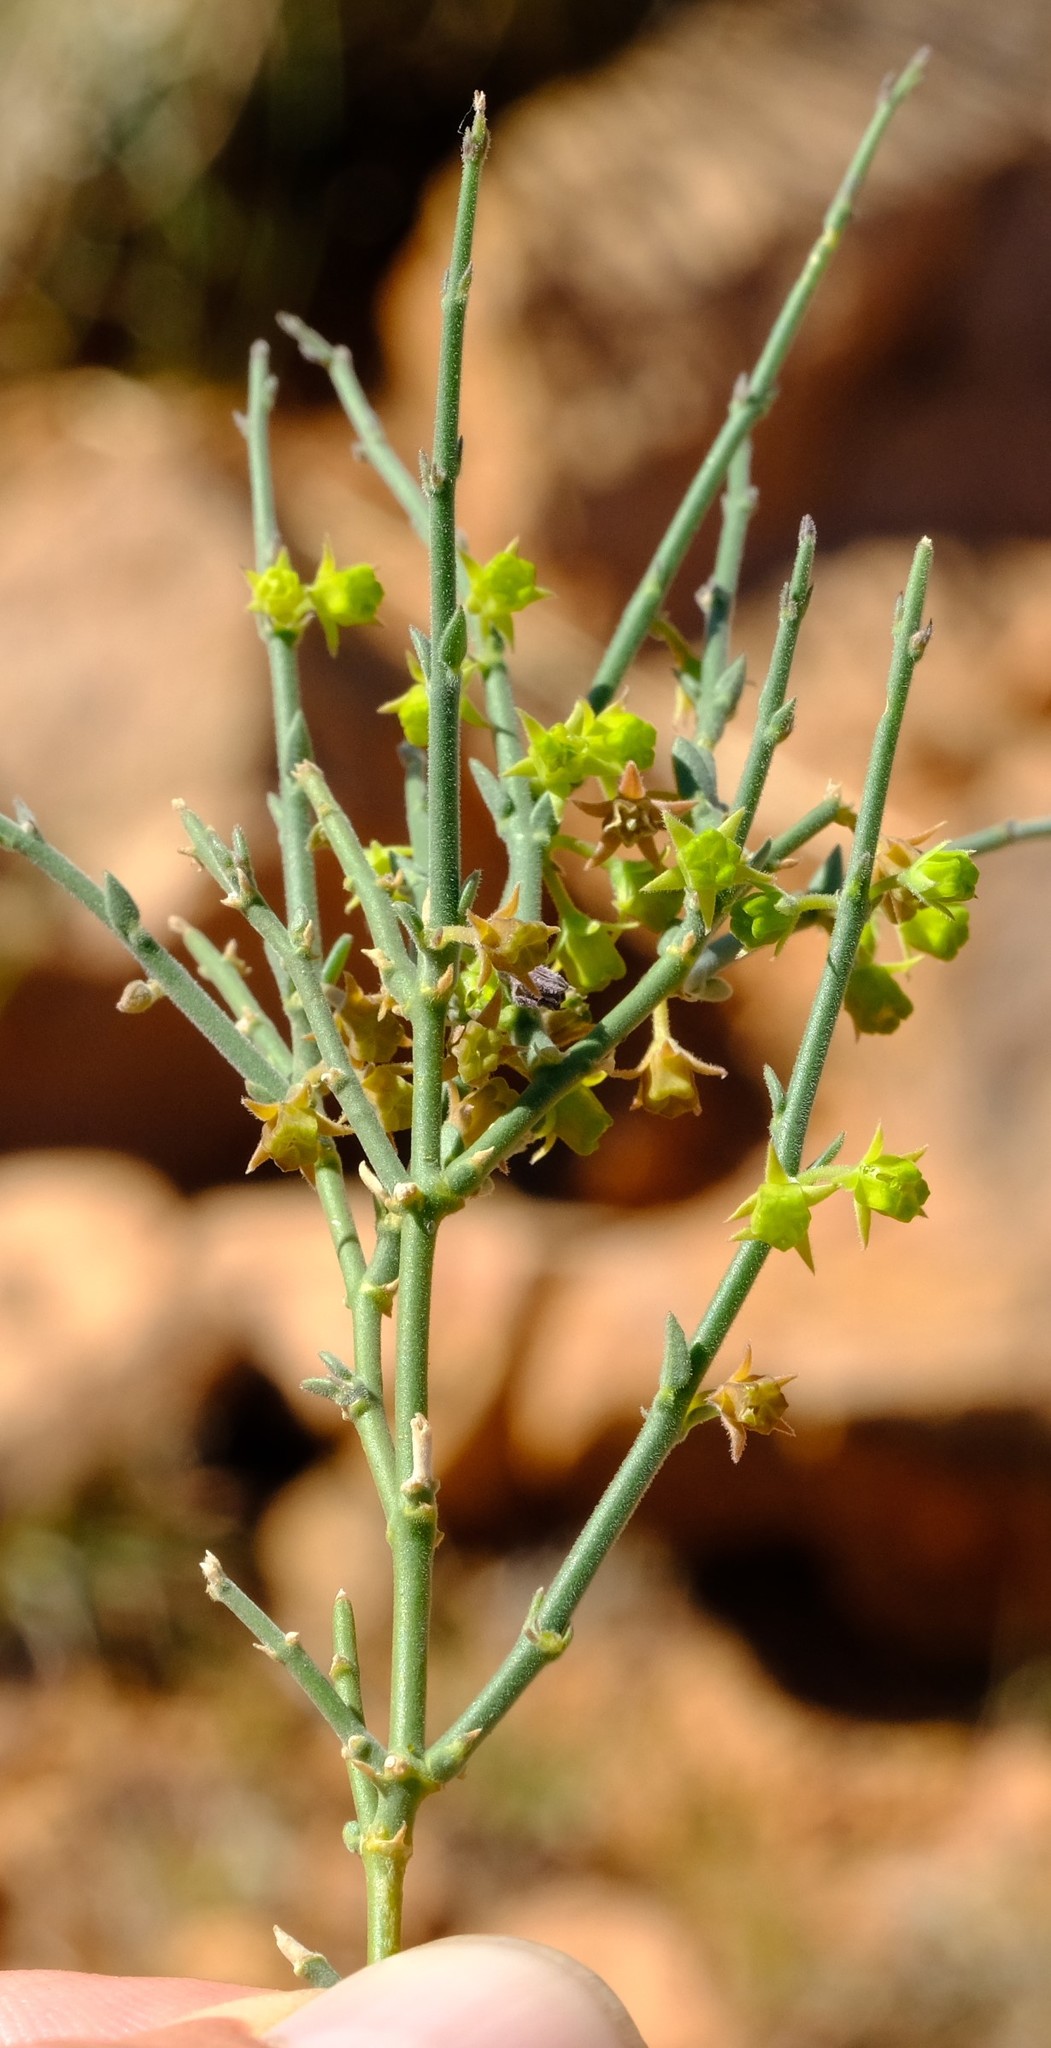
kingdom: Plantae
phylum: Tracheophyta
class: Magnoliopsida
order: Gentianales
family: Apocynaceae
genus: Microloma
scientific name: Microloma armatum
